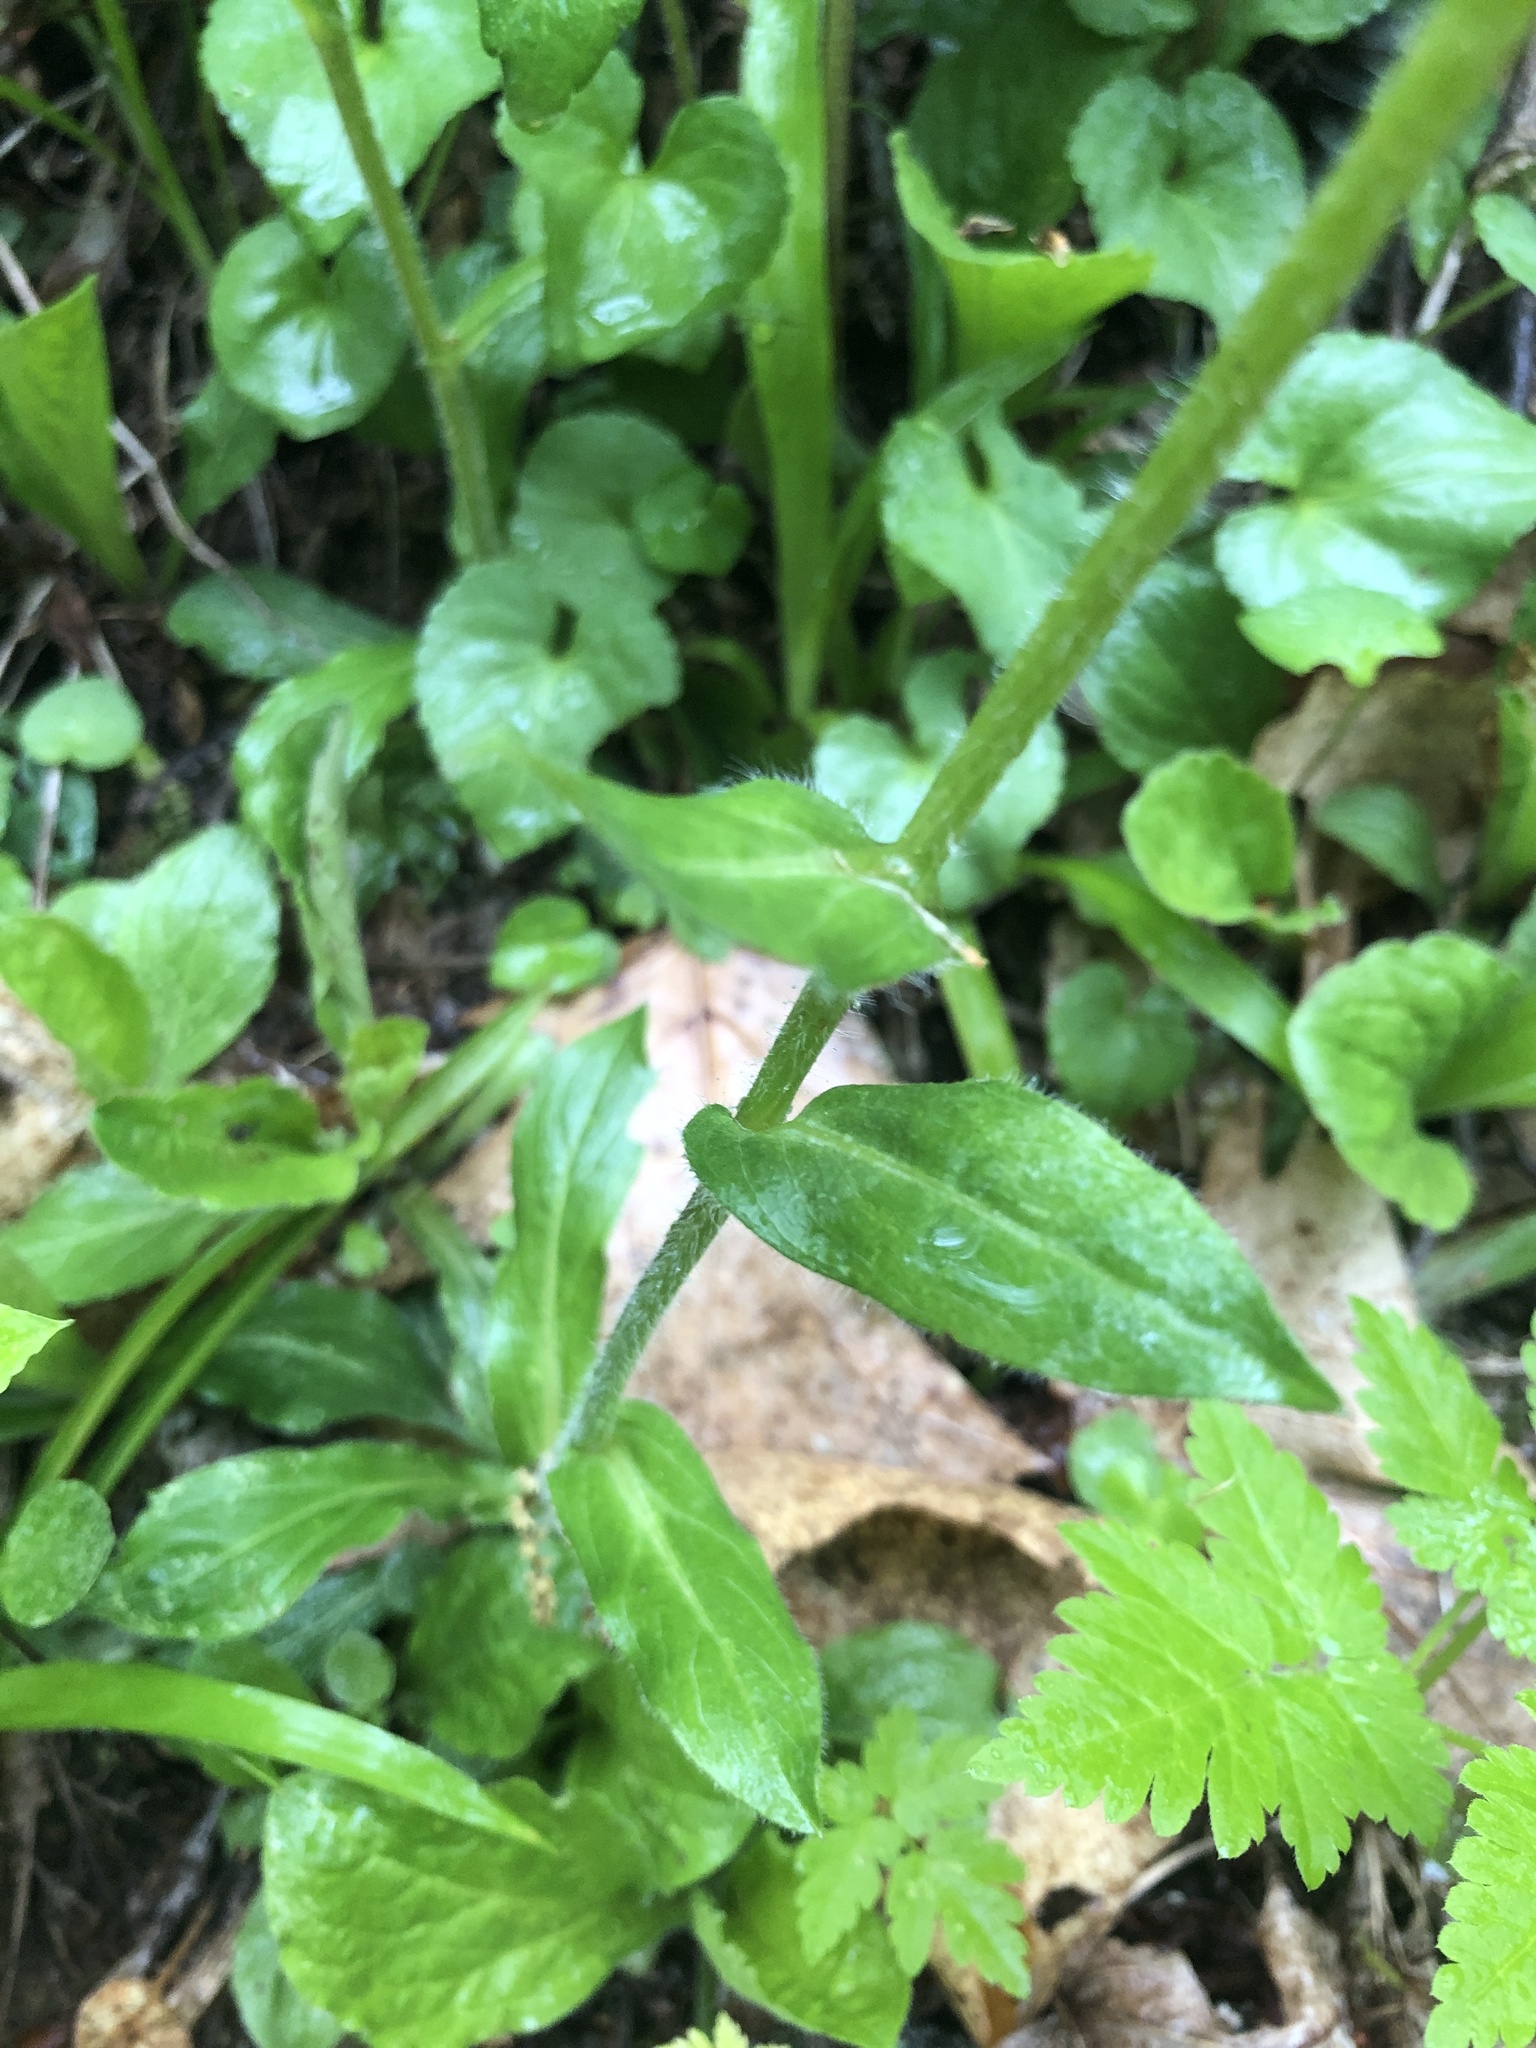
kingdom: Plantae
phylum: Tracheophyta
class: Magnoliopsida
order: Asterales
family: Asteraceae
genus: Erigeron
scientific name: Erigeron pulchellus
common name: Hairy fleabane
